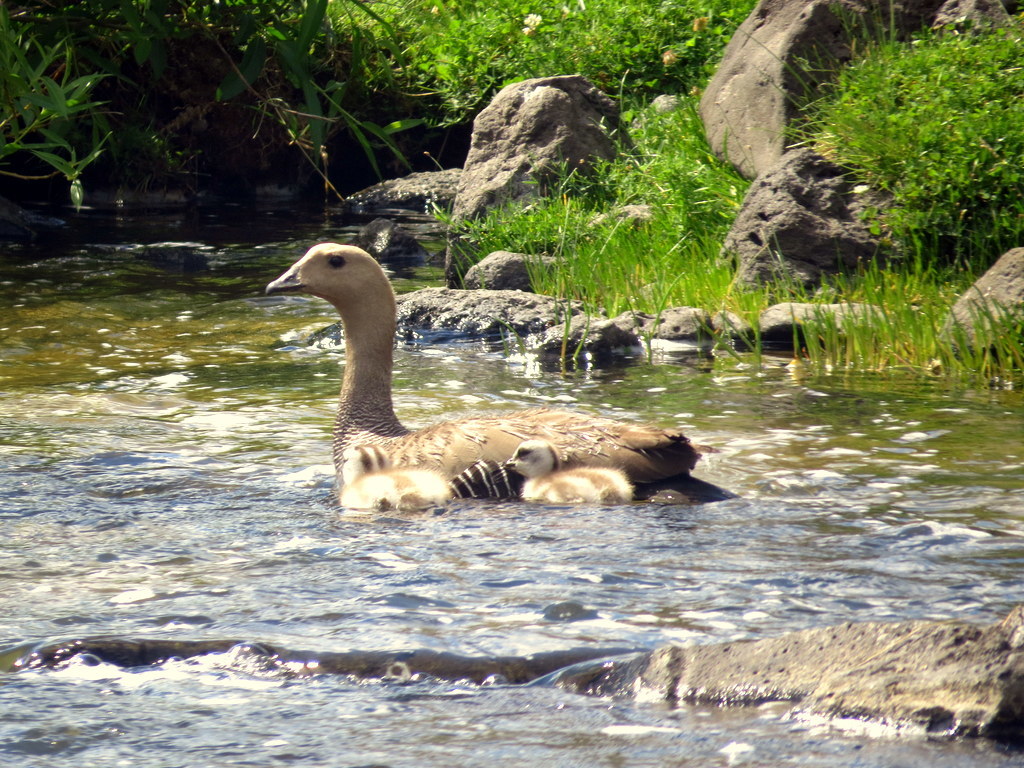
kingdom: Animalia
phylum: Chordata
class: Aves
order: Anseriformes
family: Anatidae
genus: Chloephaga
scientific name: Chloephaga picta
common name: Upland goose
